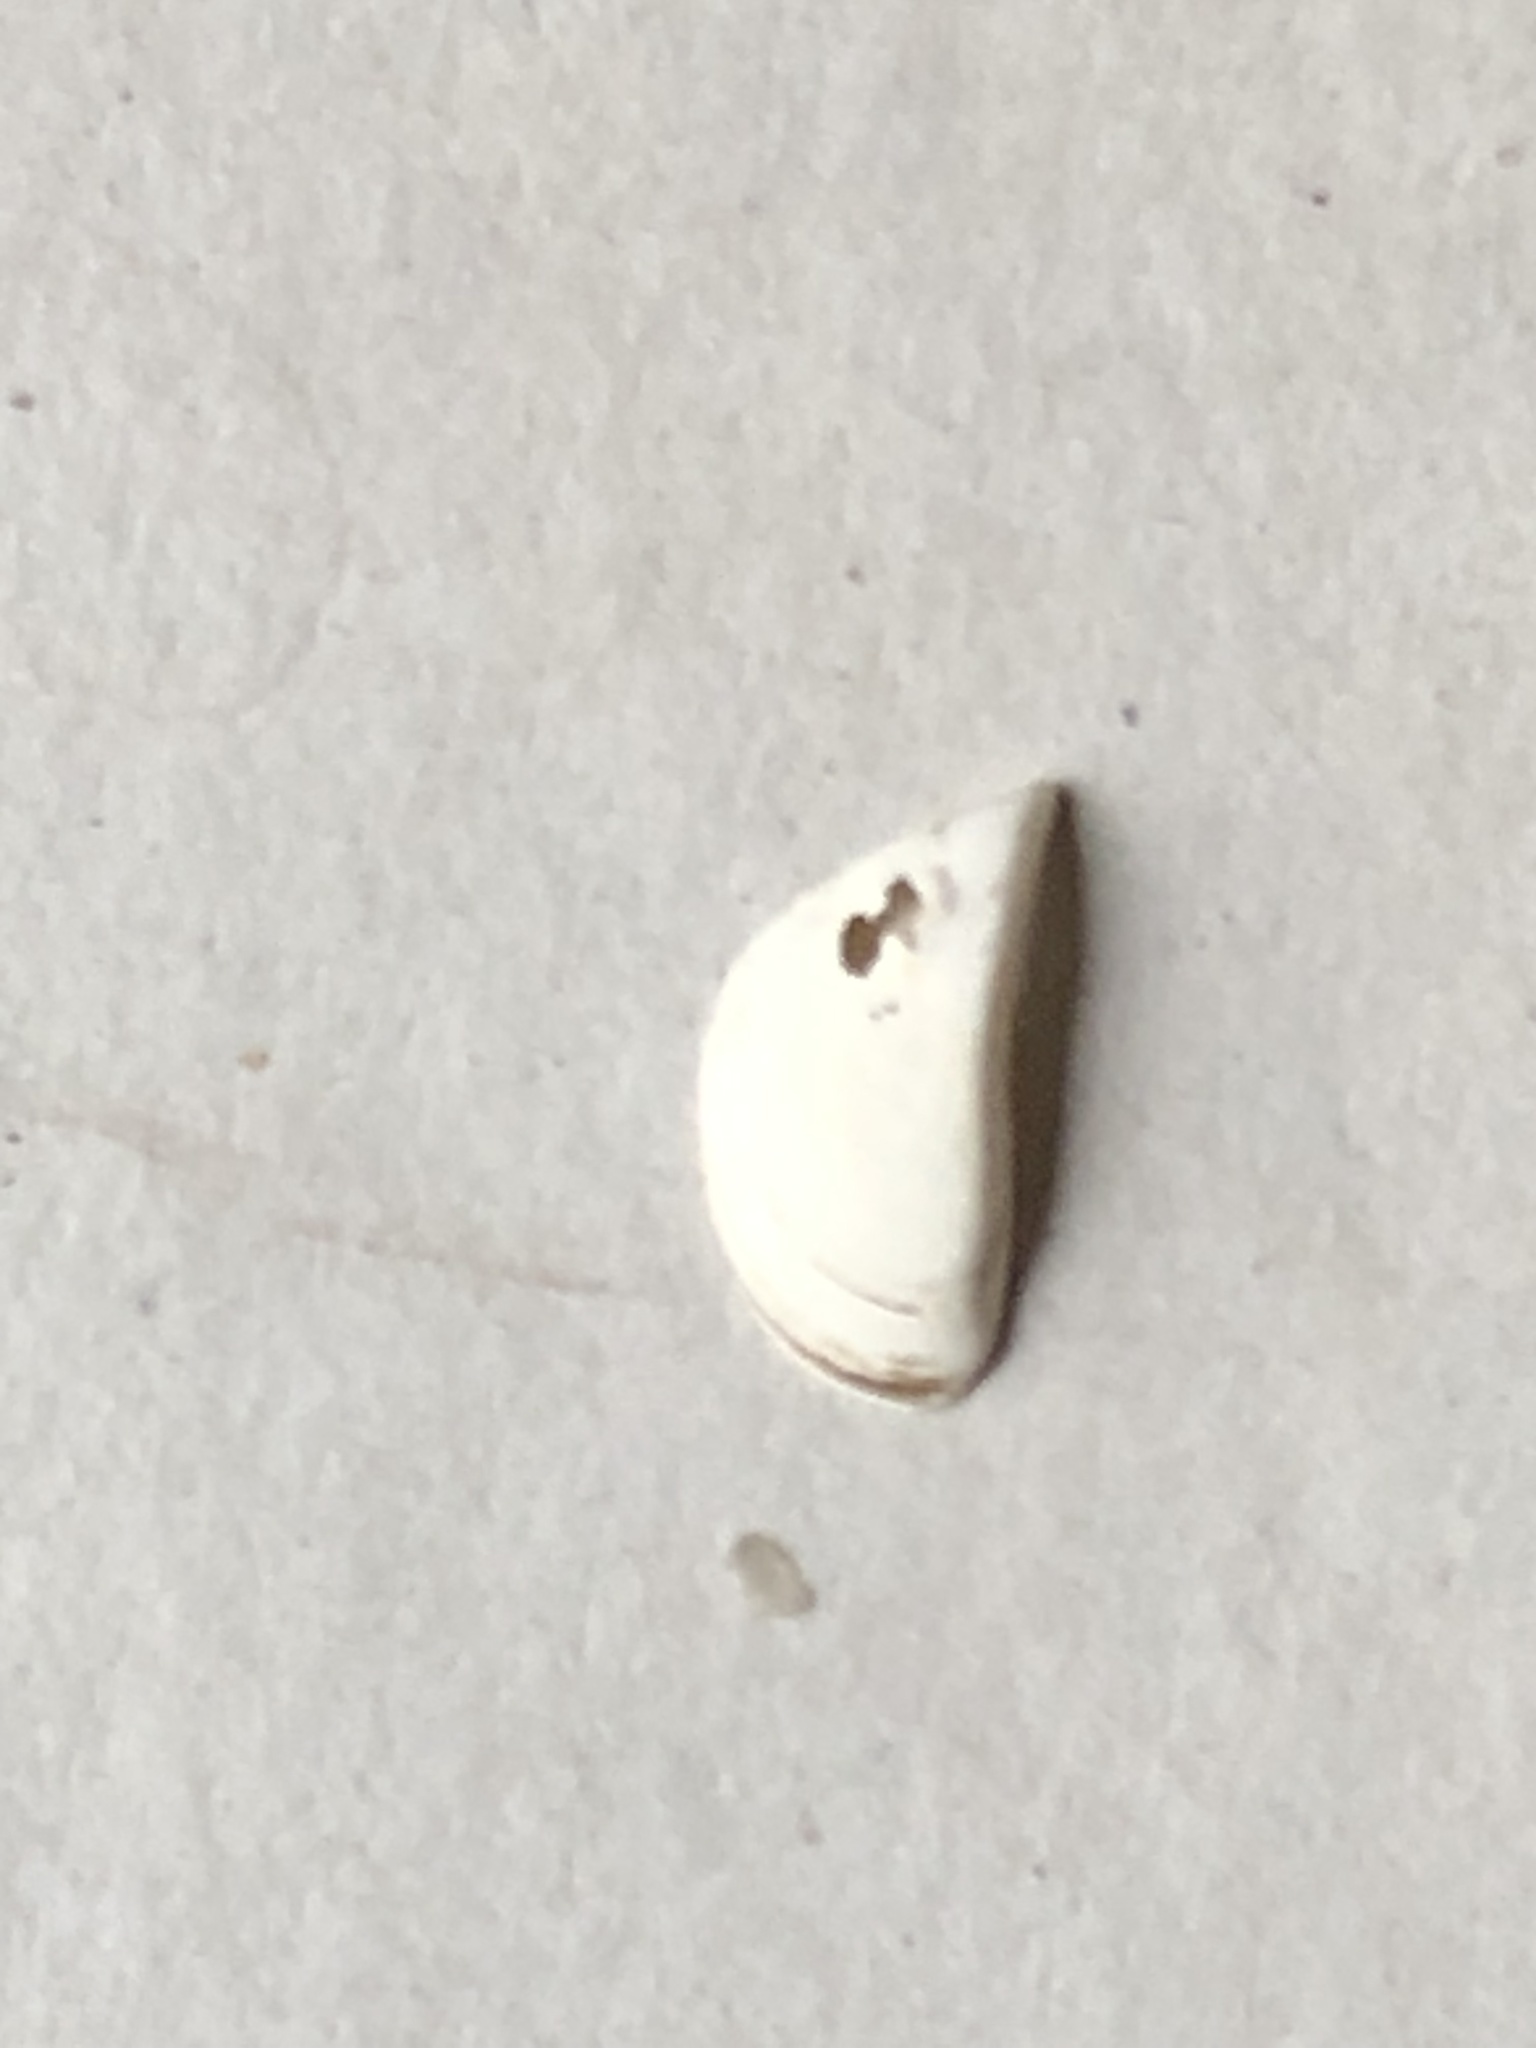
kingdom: Animalia
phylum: Mollusca
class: Bivalvia
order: Myida
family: Dreissenidae
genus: Dreissena
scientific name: Dreissena polymorpha
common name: Zebra mussel
